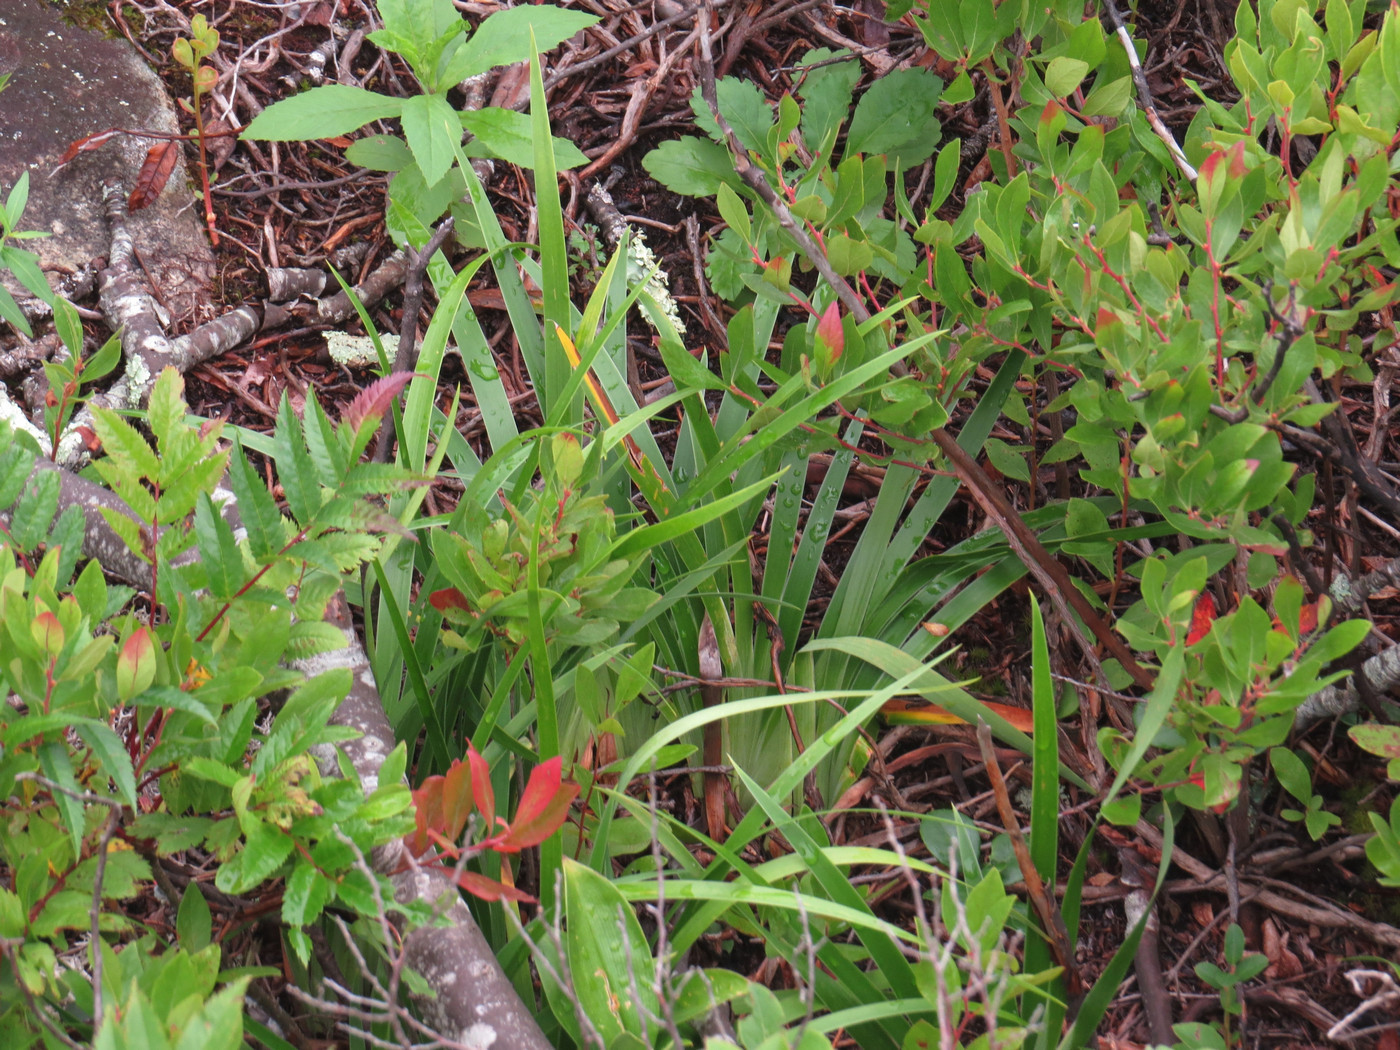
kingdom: Plantae
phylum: Tracheophyta
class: Liliopsida
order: Liliales
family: Melanthiaceae
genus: Stenanthium
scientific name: Stenanthium leimanthoides
